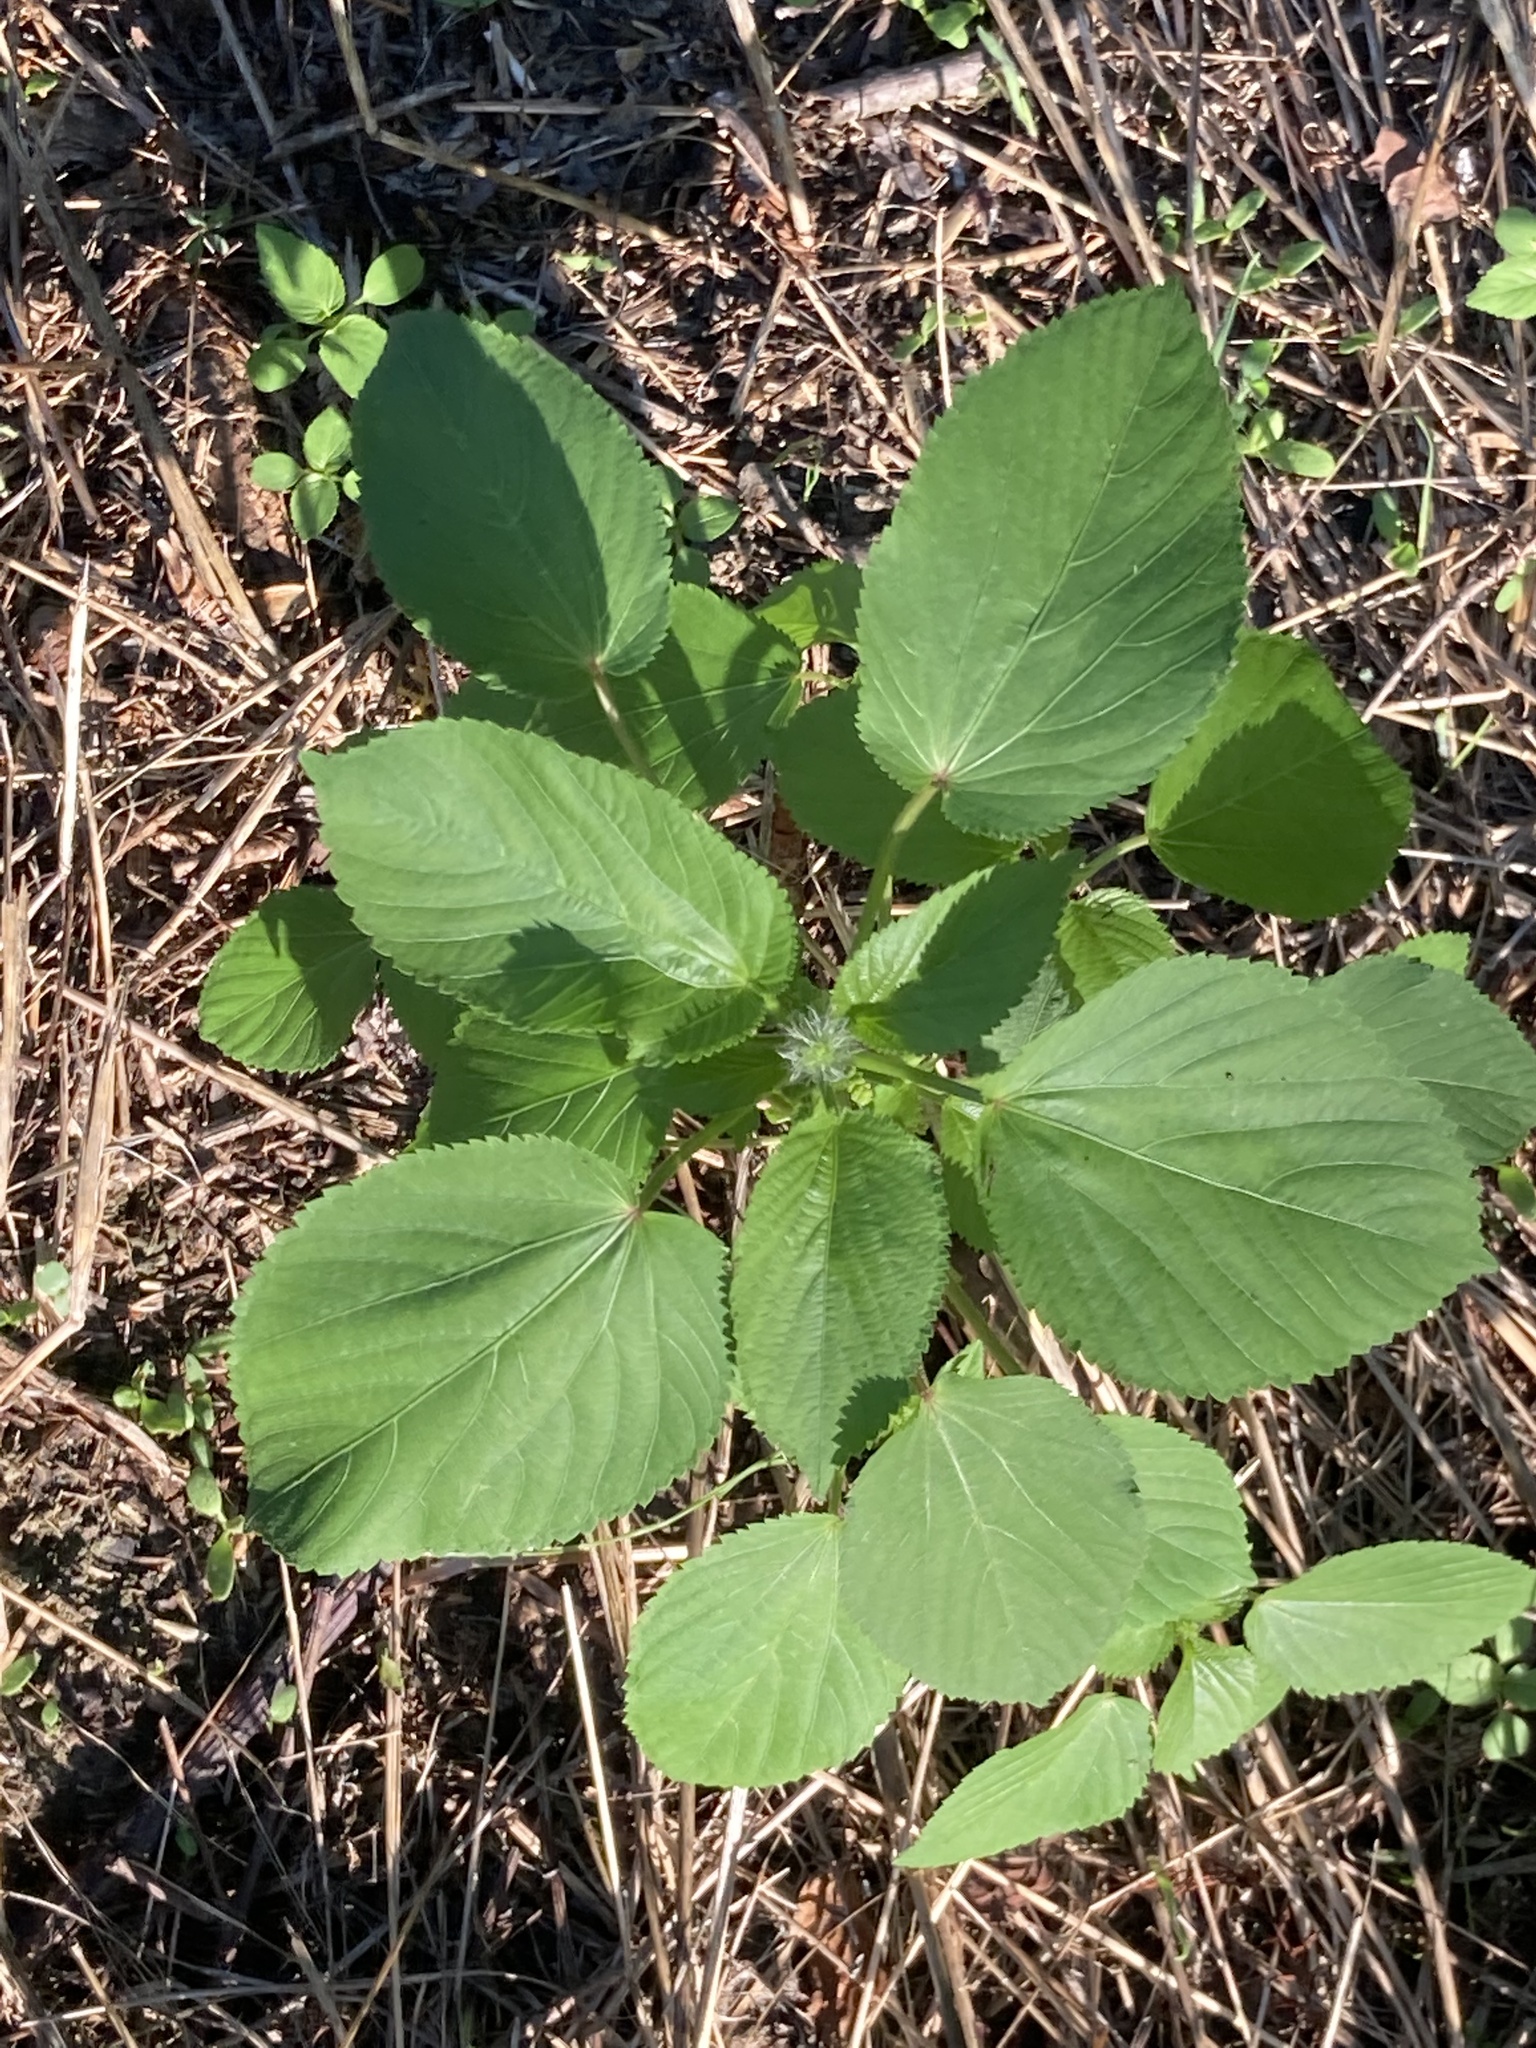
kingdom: Plantae
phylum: Tracheophyta
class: Magnoliopsida
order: Malpighiales
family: Euphorbiaceae
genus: Acalypha
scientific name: Acalypha ostryifolia
